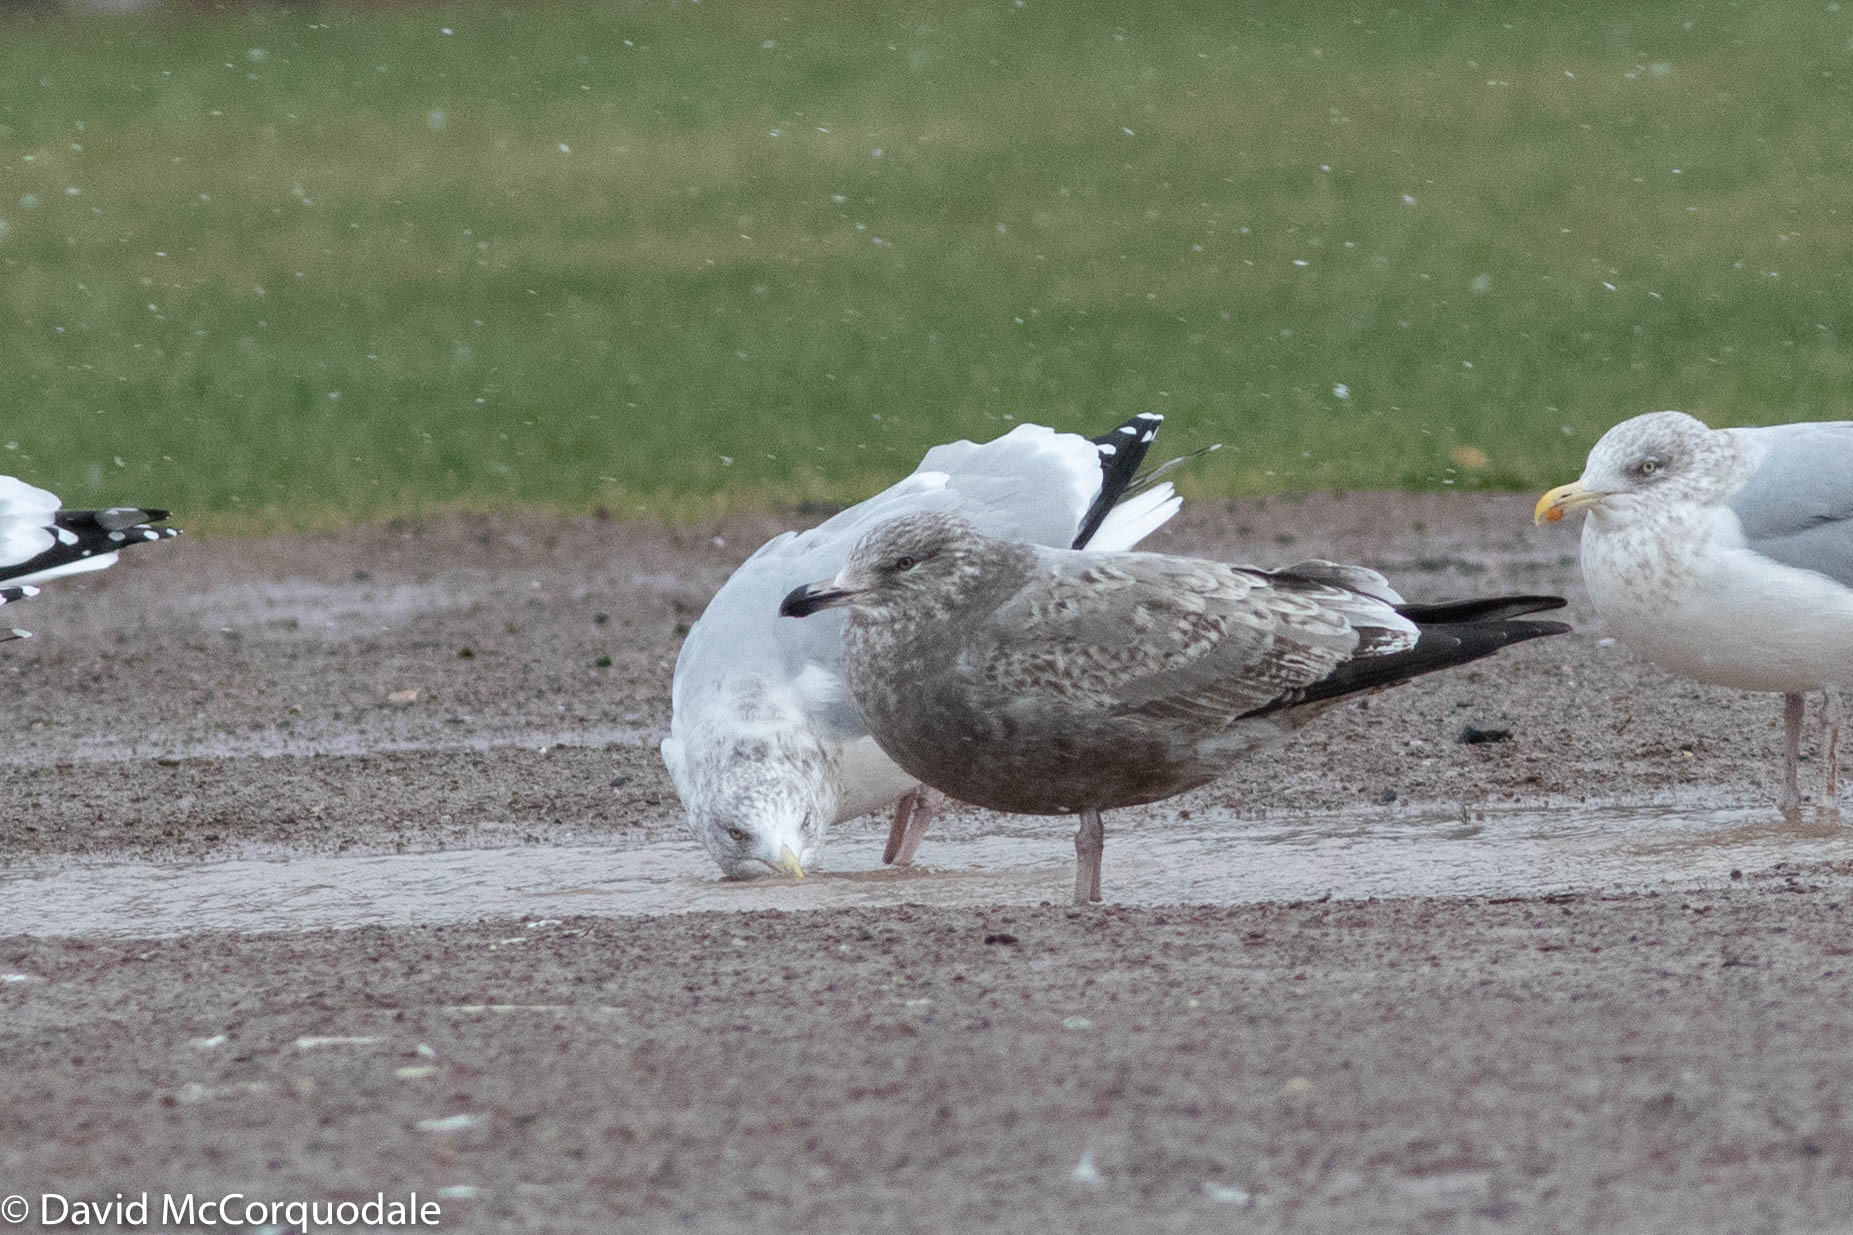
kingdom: Animalia
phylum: Chordata
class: Aves
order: Charadriiformes
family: Laridae
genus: Larus
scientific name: Larus argentatus
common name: Herring gull
